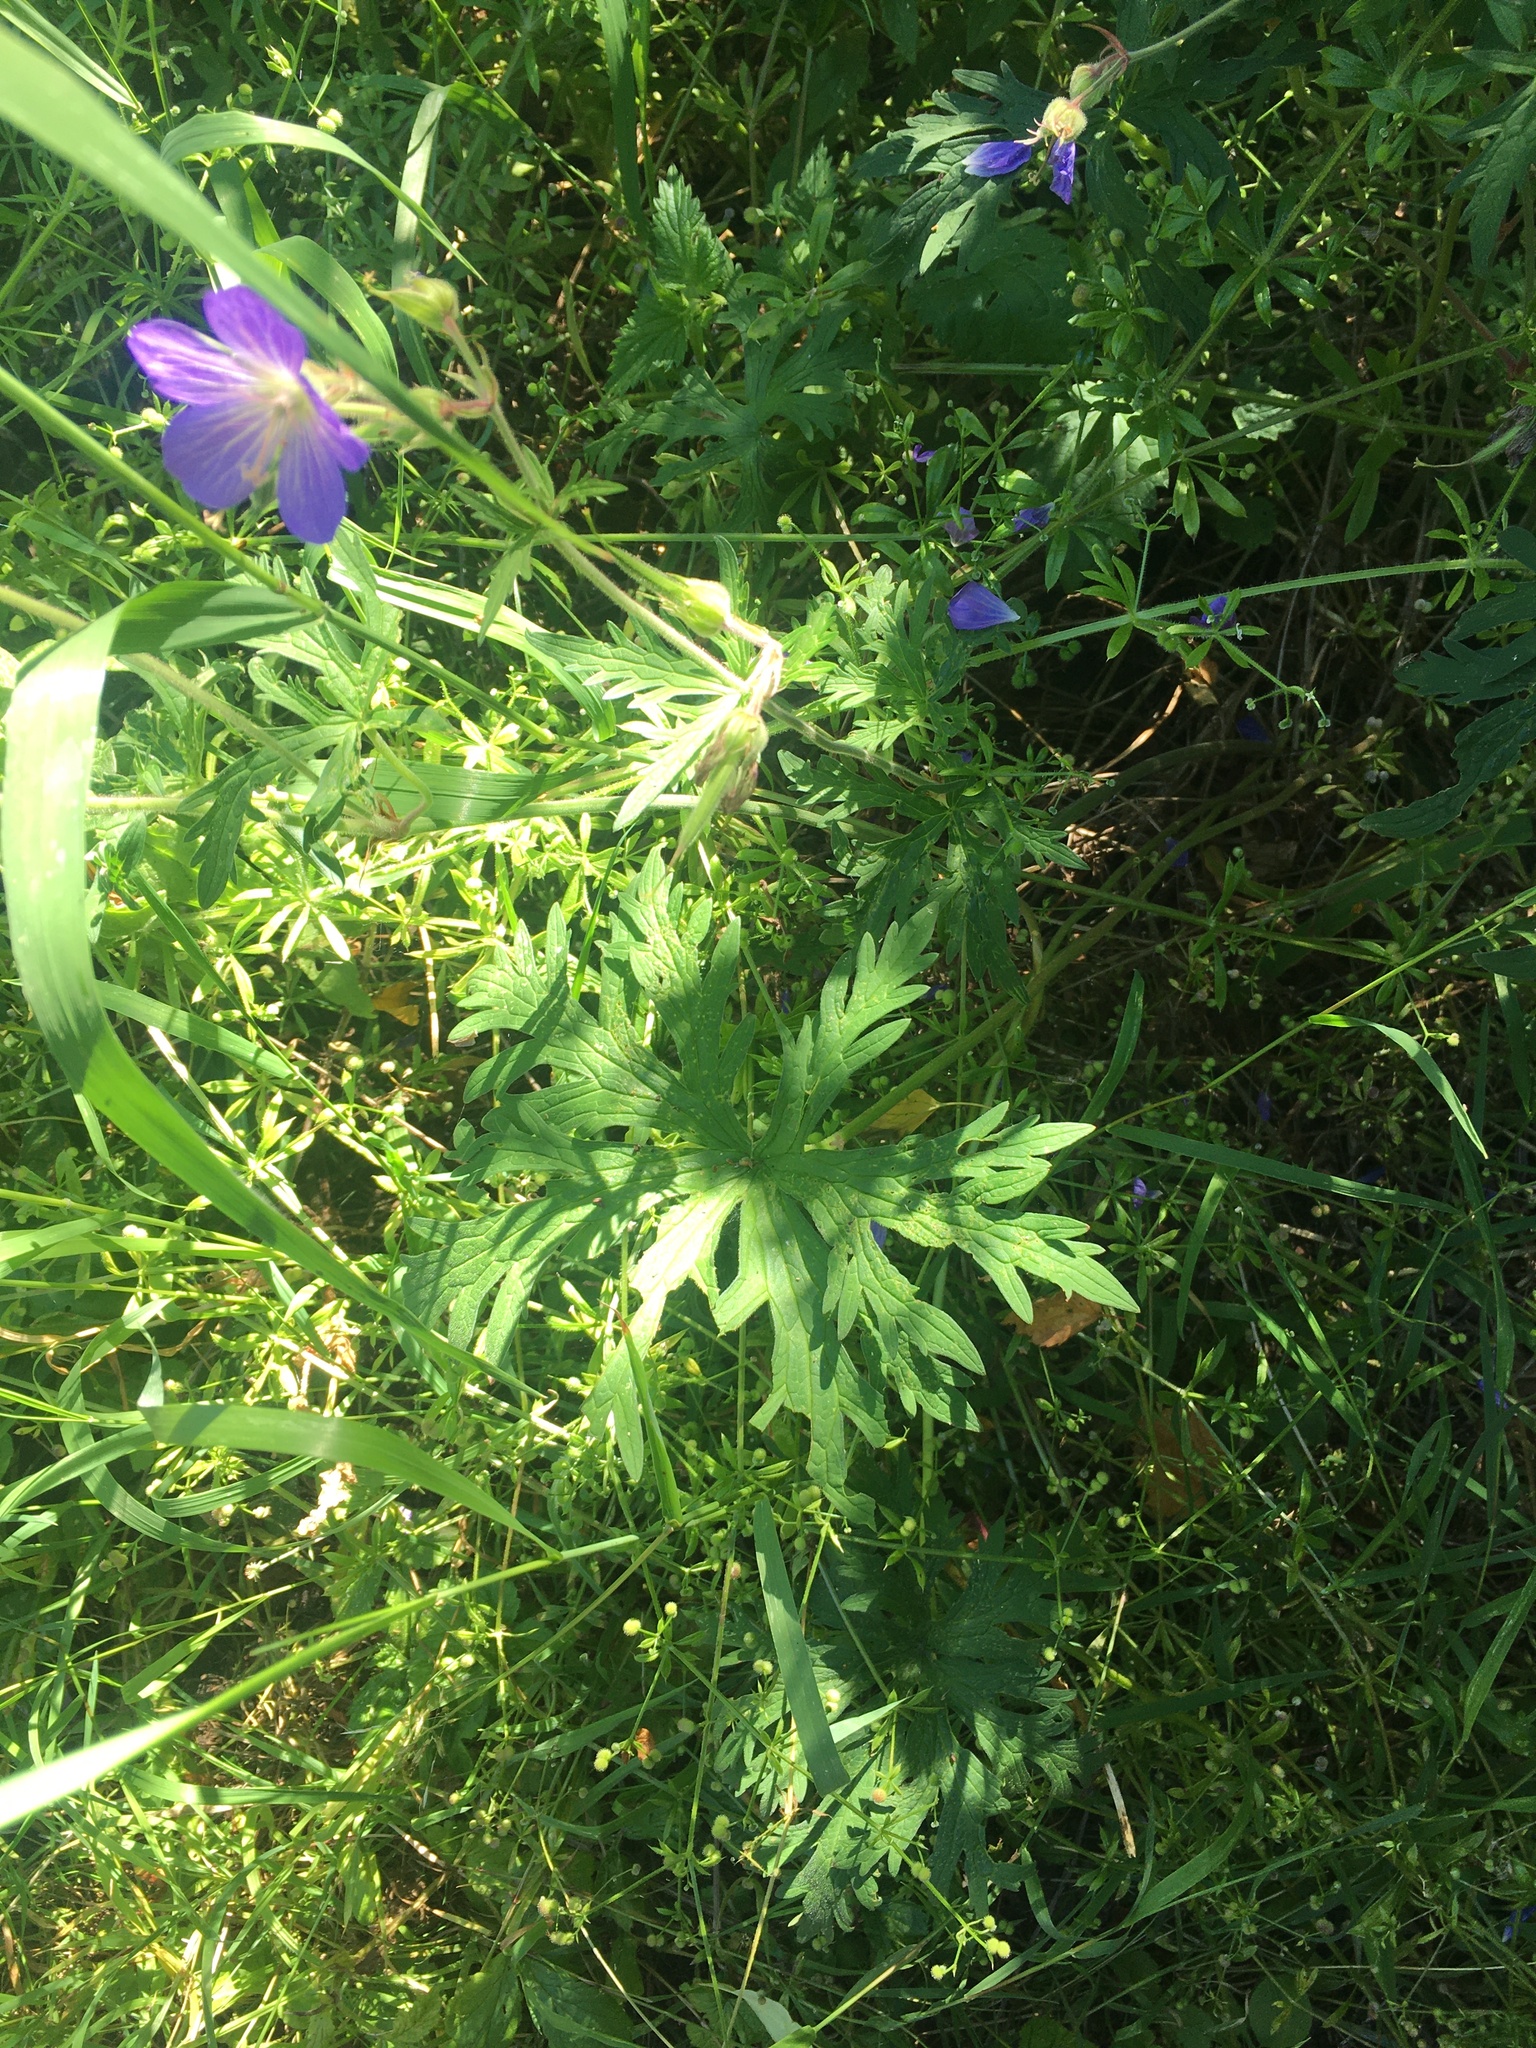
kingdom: Plantae
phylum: Tracheophyta
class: Magnoliopsida
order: Geraniales
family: Geraniaceae
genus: Geranium
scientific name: Geranium pratense
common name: Meadow crane's-bill
